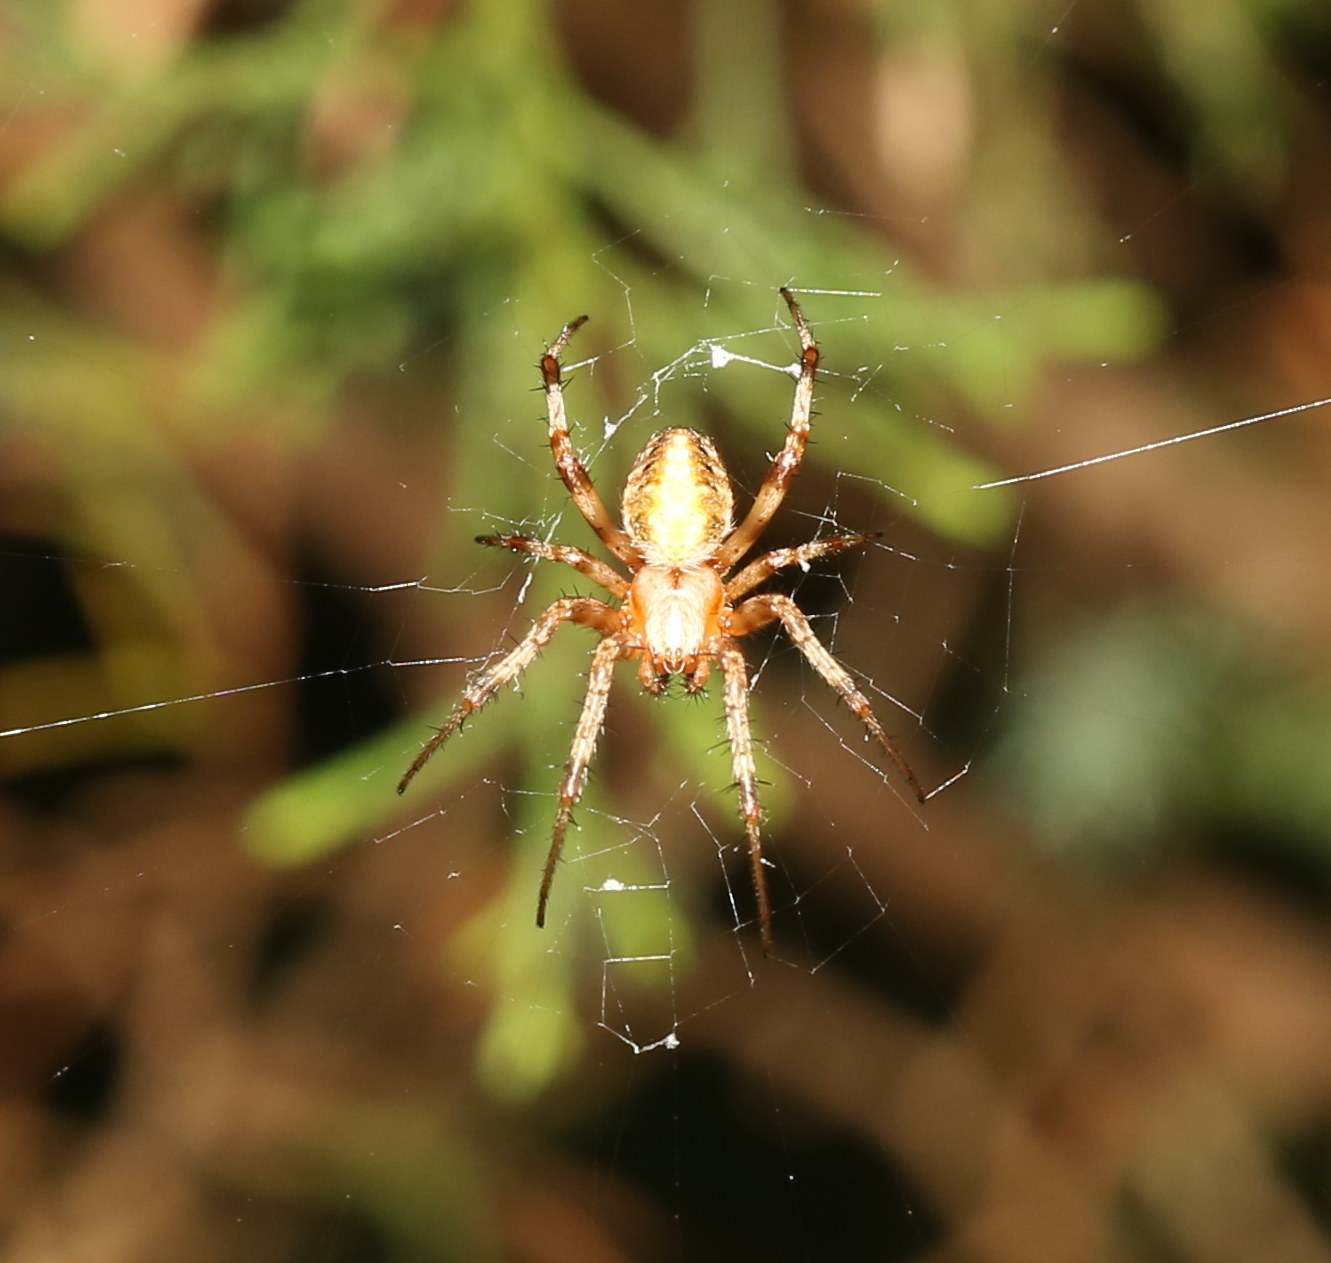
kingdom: Animalia
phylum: Arthropoda
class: Arachnida
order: Araneae
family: Araneidae
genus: Neoscona
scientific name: Neoscona arabesca
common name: Orb weavers
